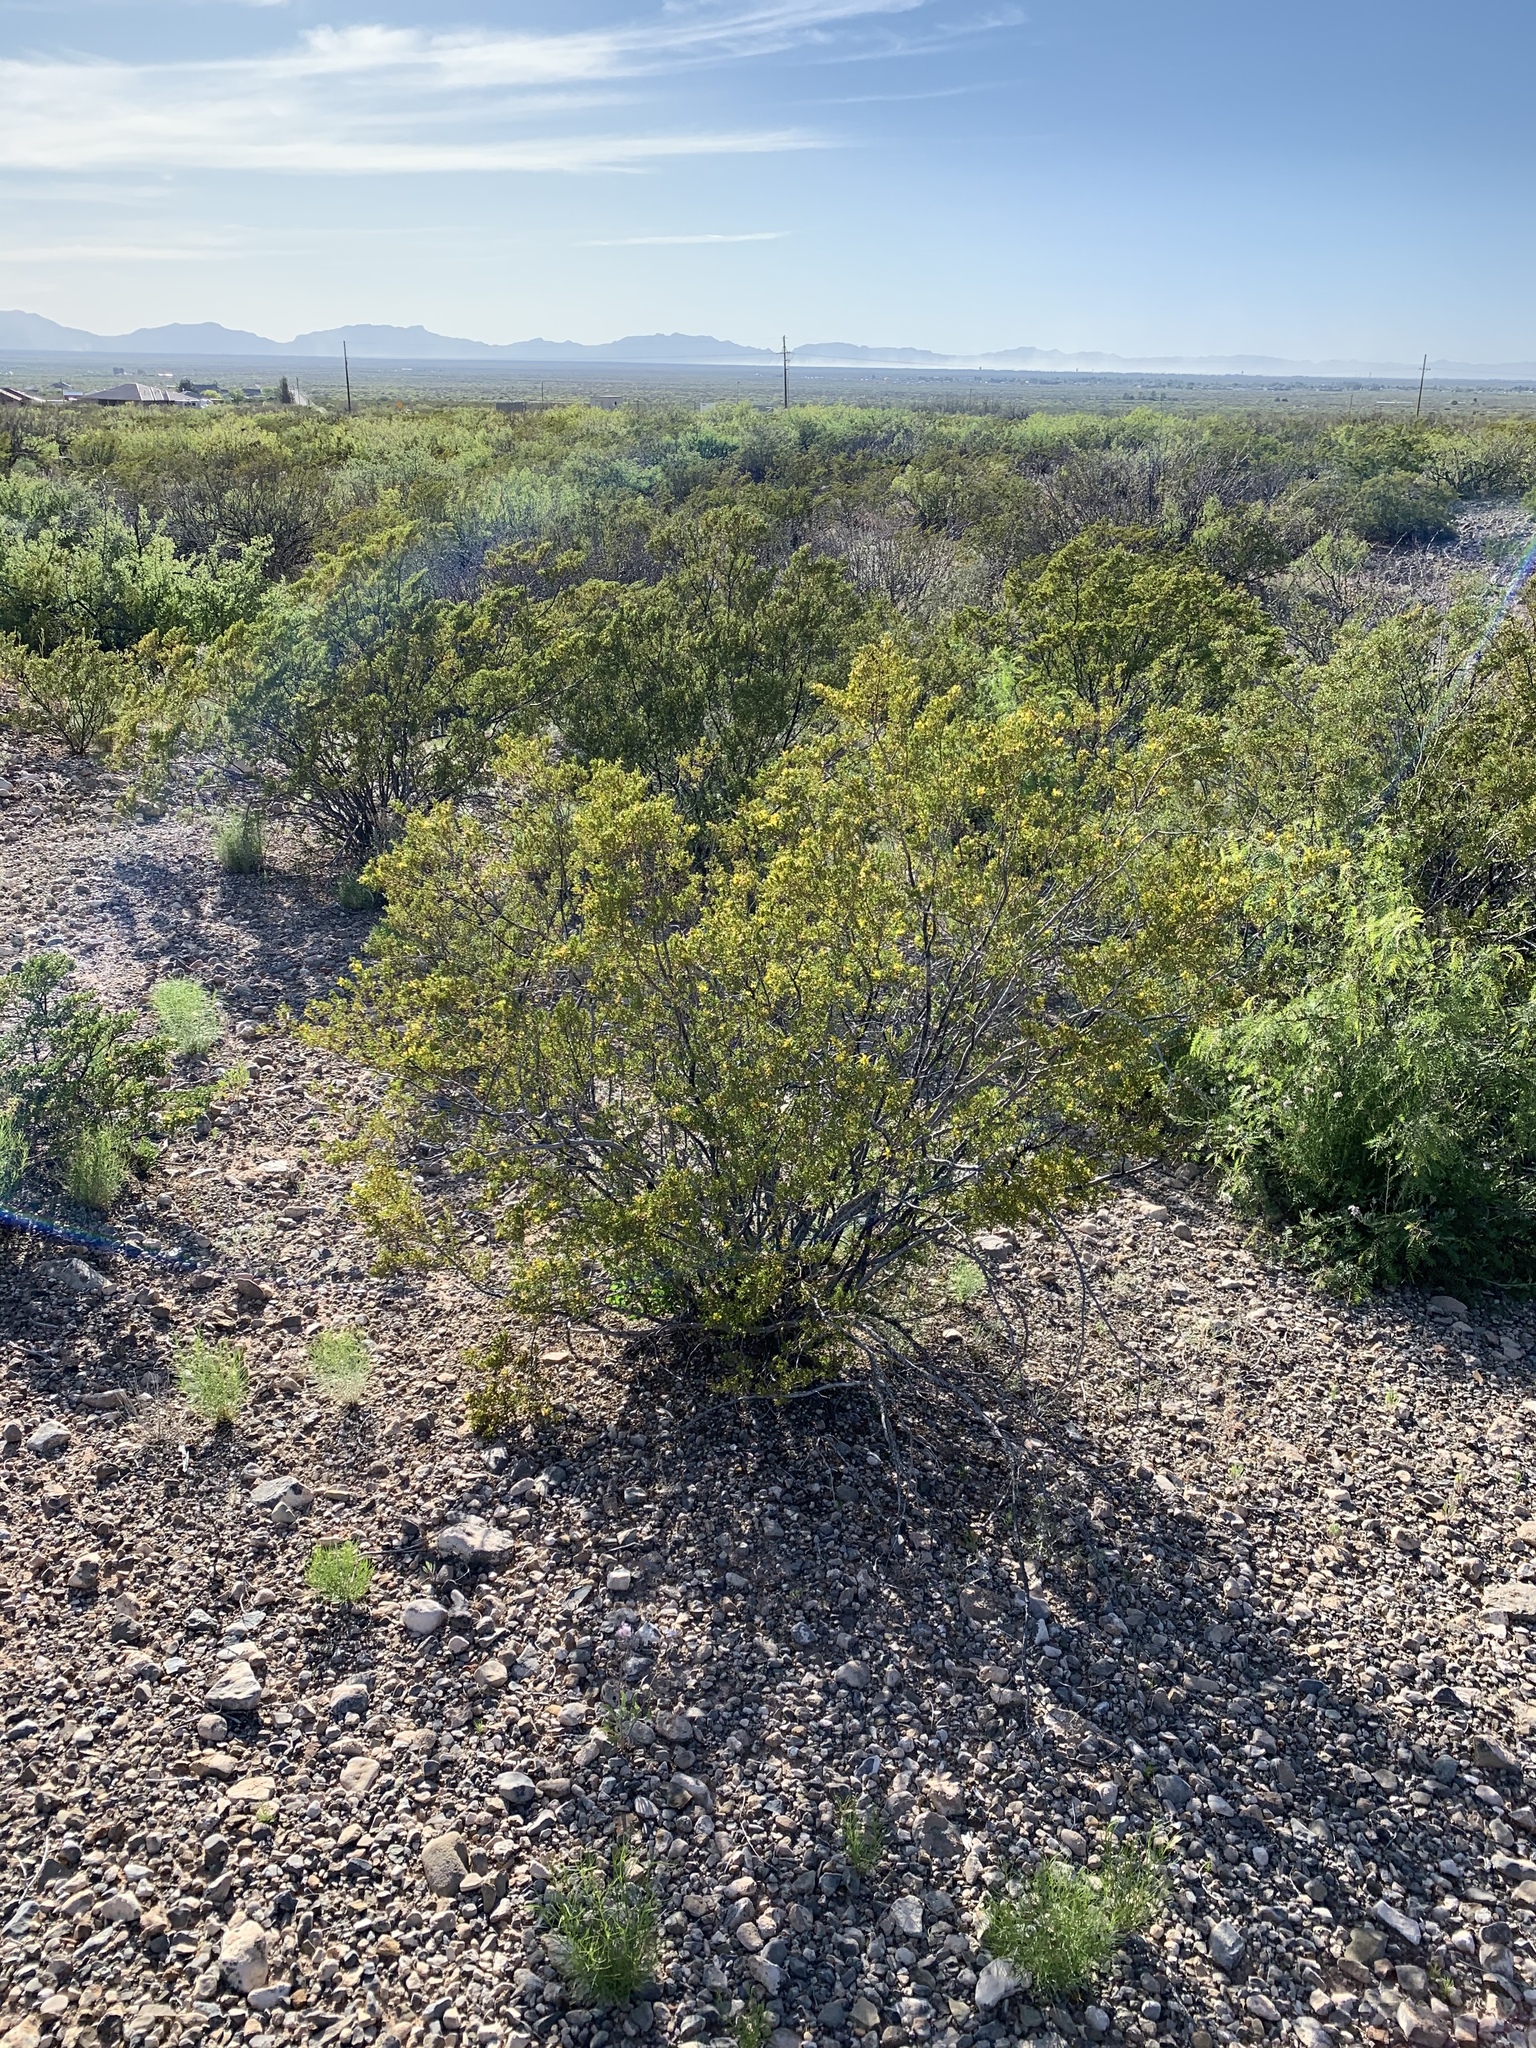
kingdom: Plantae
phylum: Tracheophyta
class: Magnoliopsida
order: Zygophyllales
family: Zygophyllaceae
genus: Larrea
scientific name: Larrea tridentata
